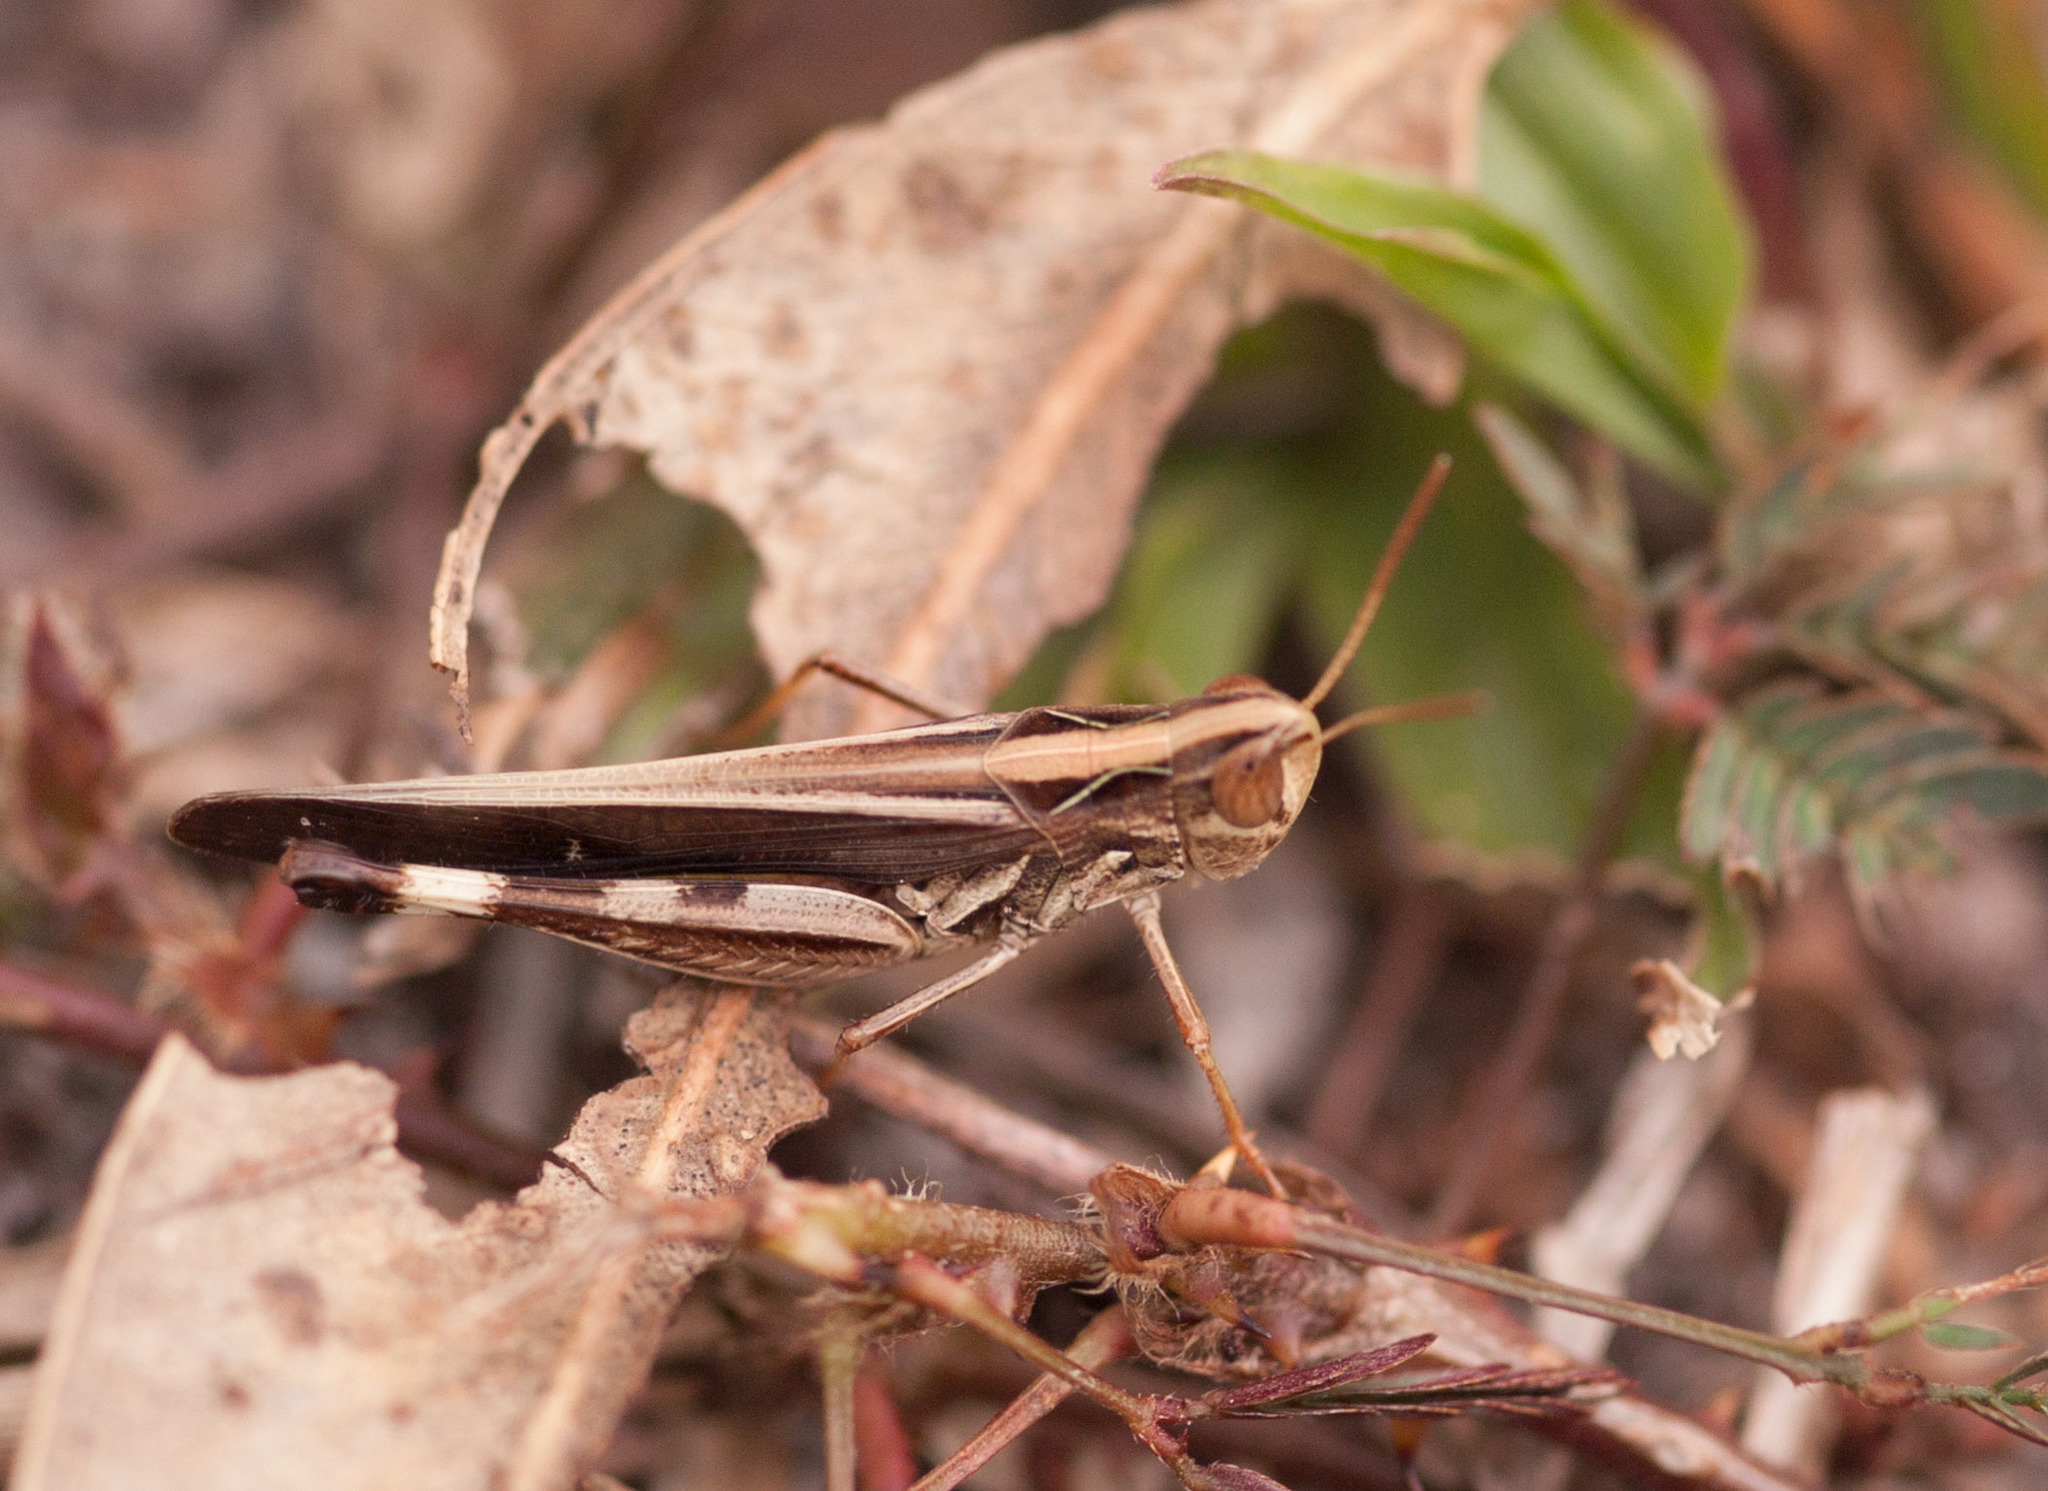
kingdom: Animalia
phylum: Arthropoda
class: Insecta
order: Orthoptera
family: Acrididae
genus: Caledia
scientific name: Caledia captiva
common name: Caledia
